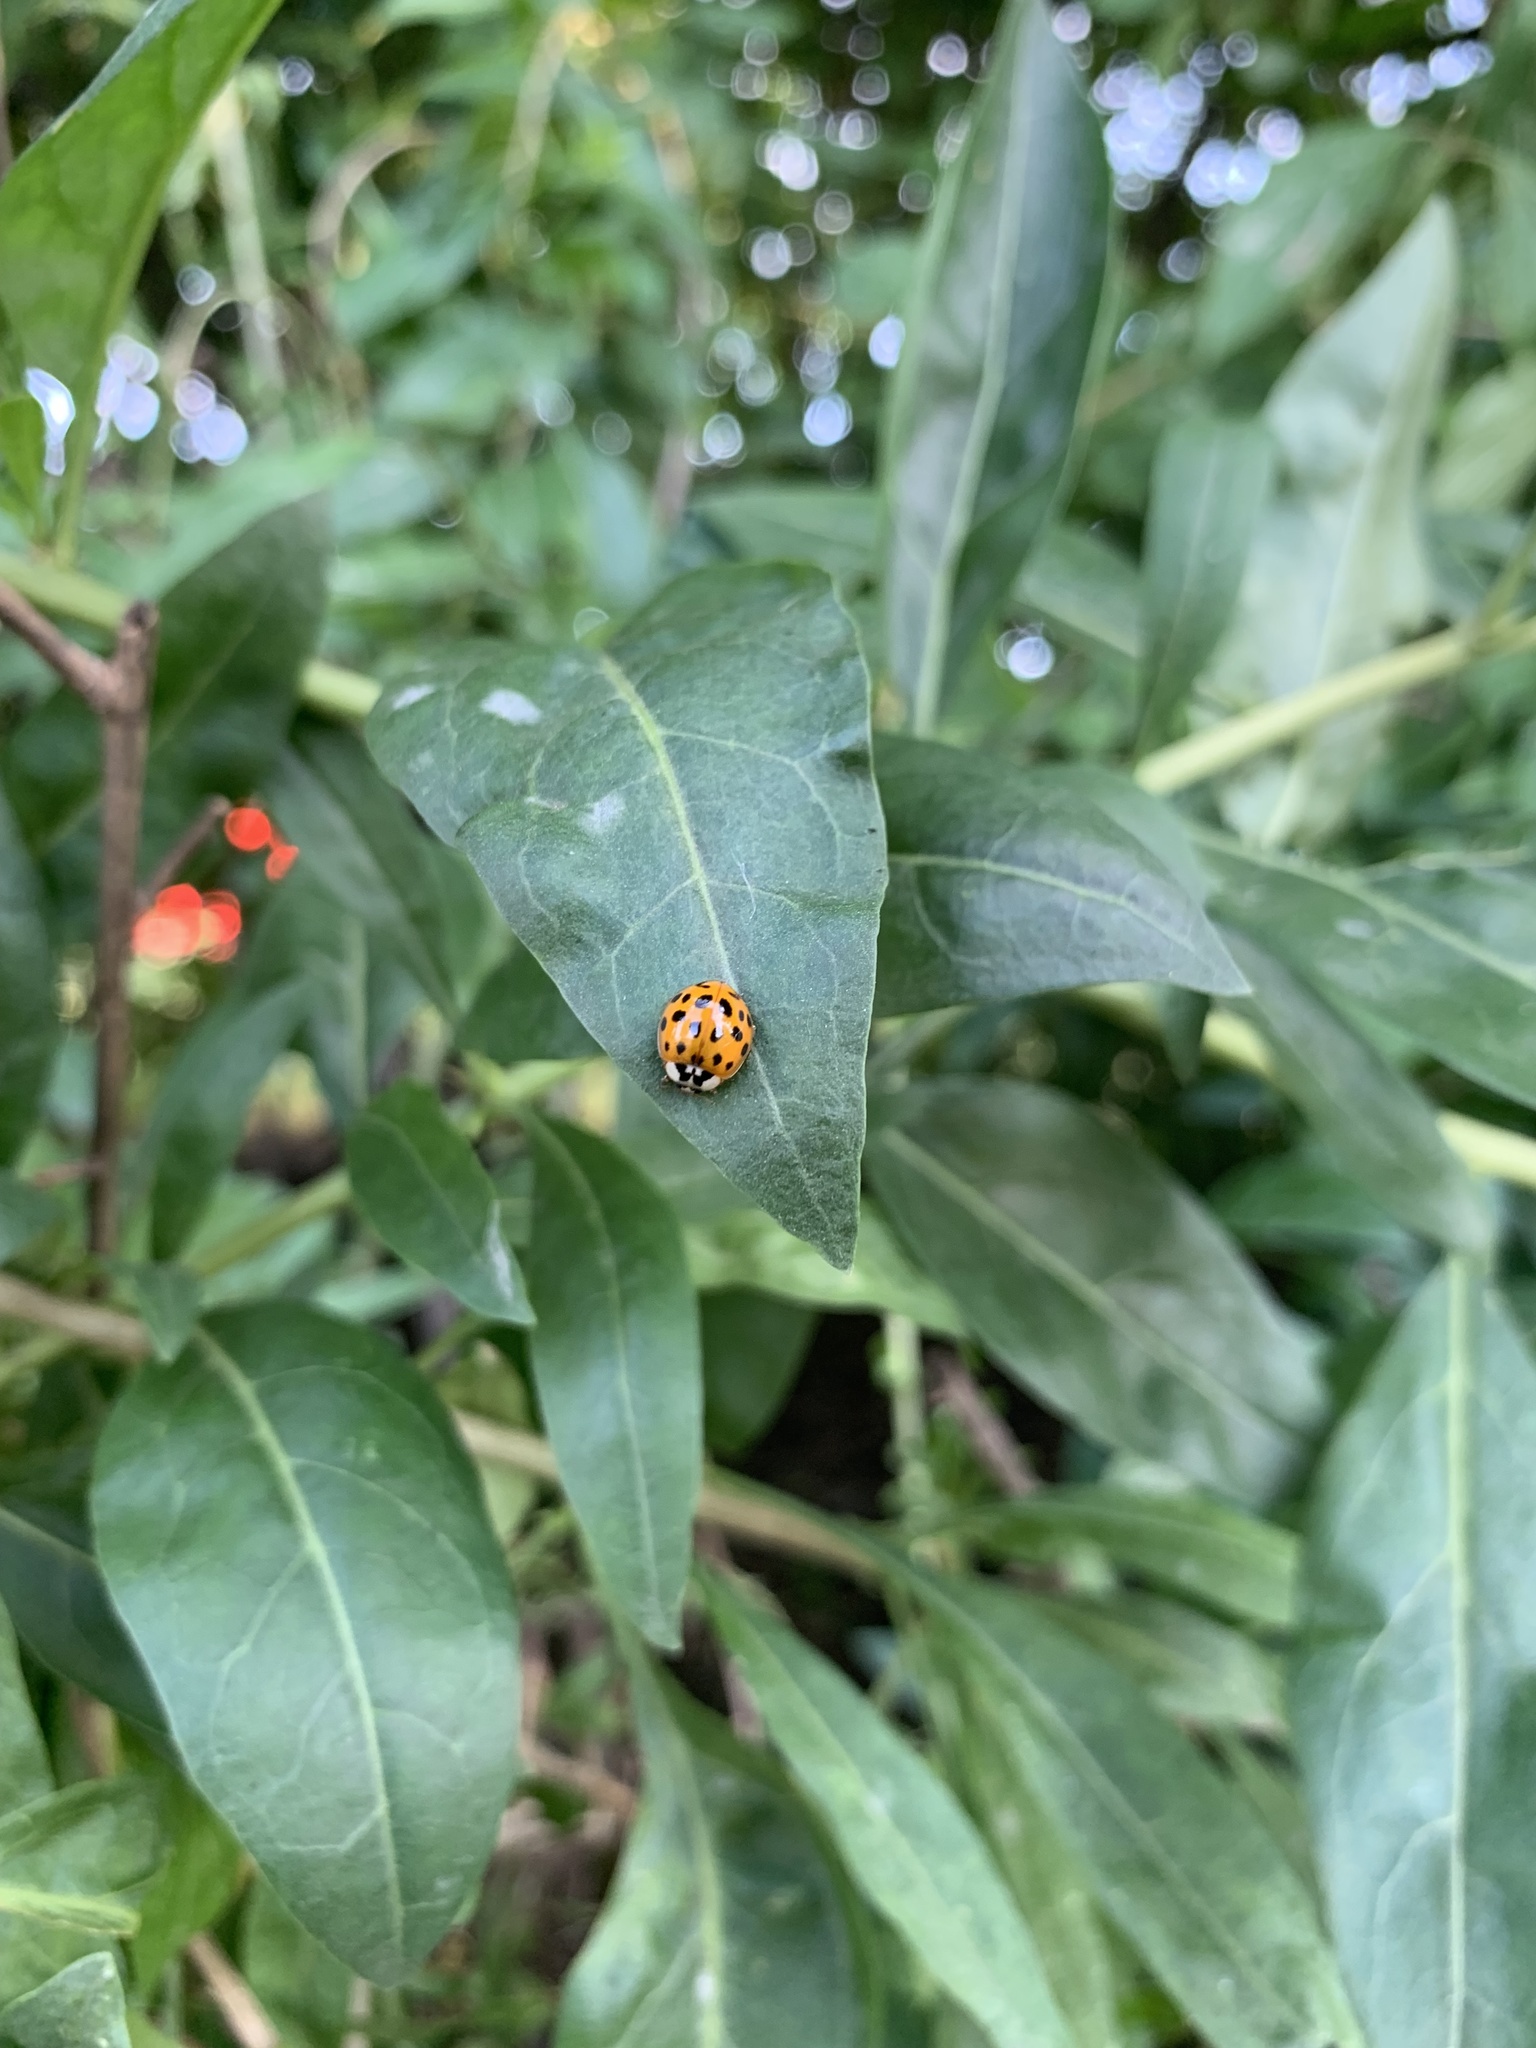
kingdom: Animalia
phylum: Arthropoda
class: Insecta
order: Coleoptera
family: Coccinellidae
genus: Harmonia
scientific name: Harmonia axyridis
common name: Harlequin ladybird
